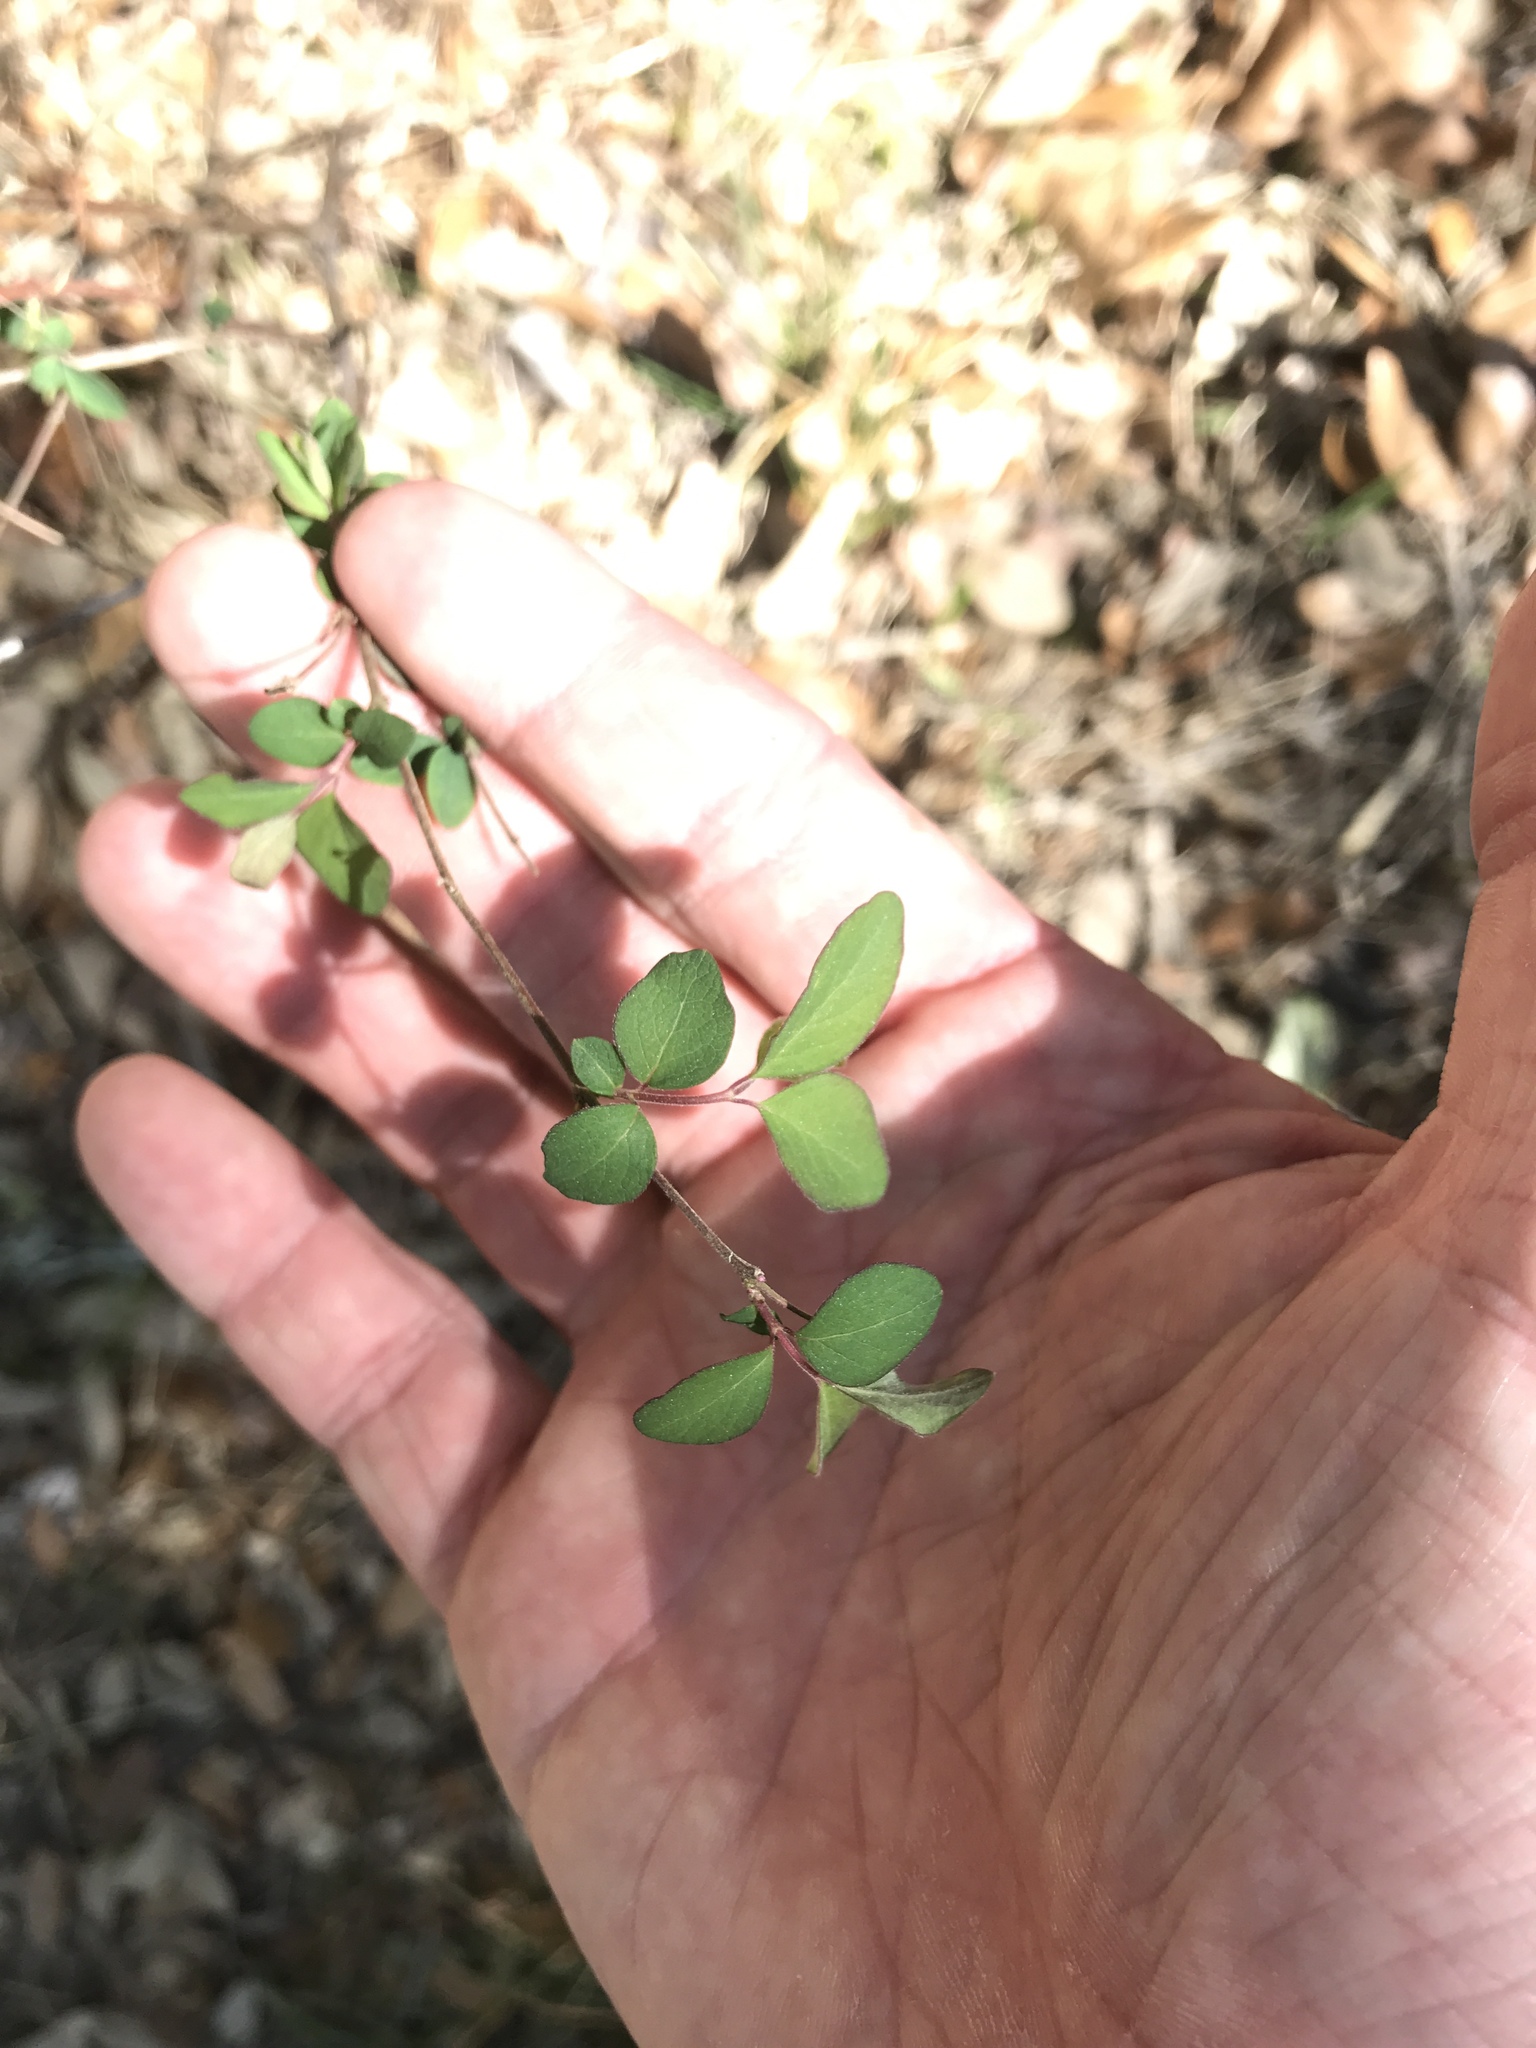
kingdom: Plantae
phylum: Tracheophyta
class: Magnoliopsida
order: Dipsacales
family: Caprifoliaceae
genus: Symphoricarpos
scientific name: Symphoricarpos orbiculatus
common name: Coralberry
